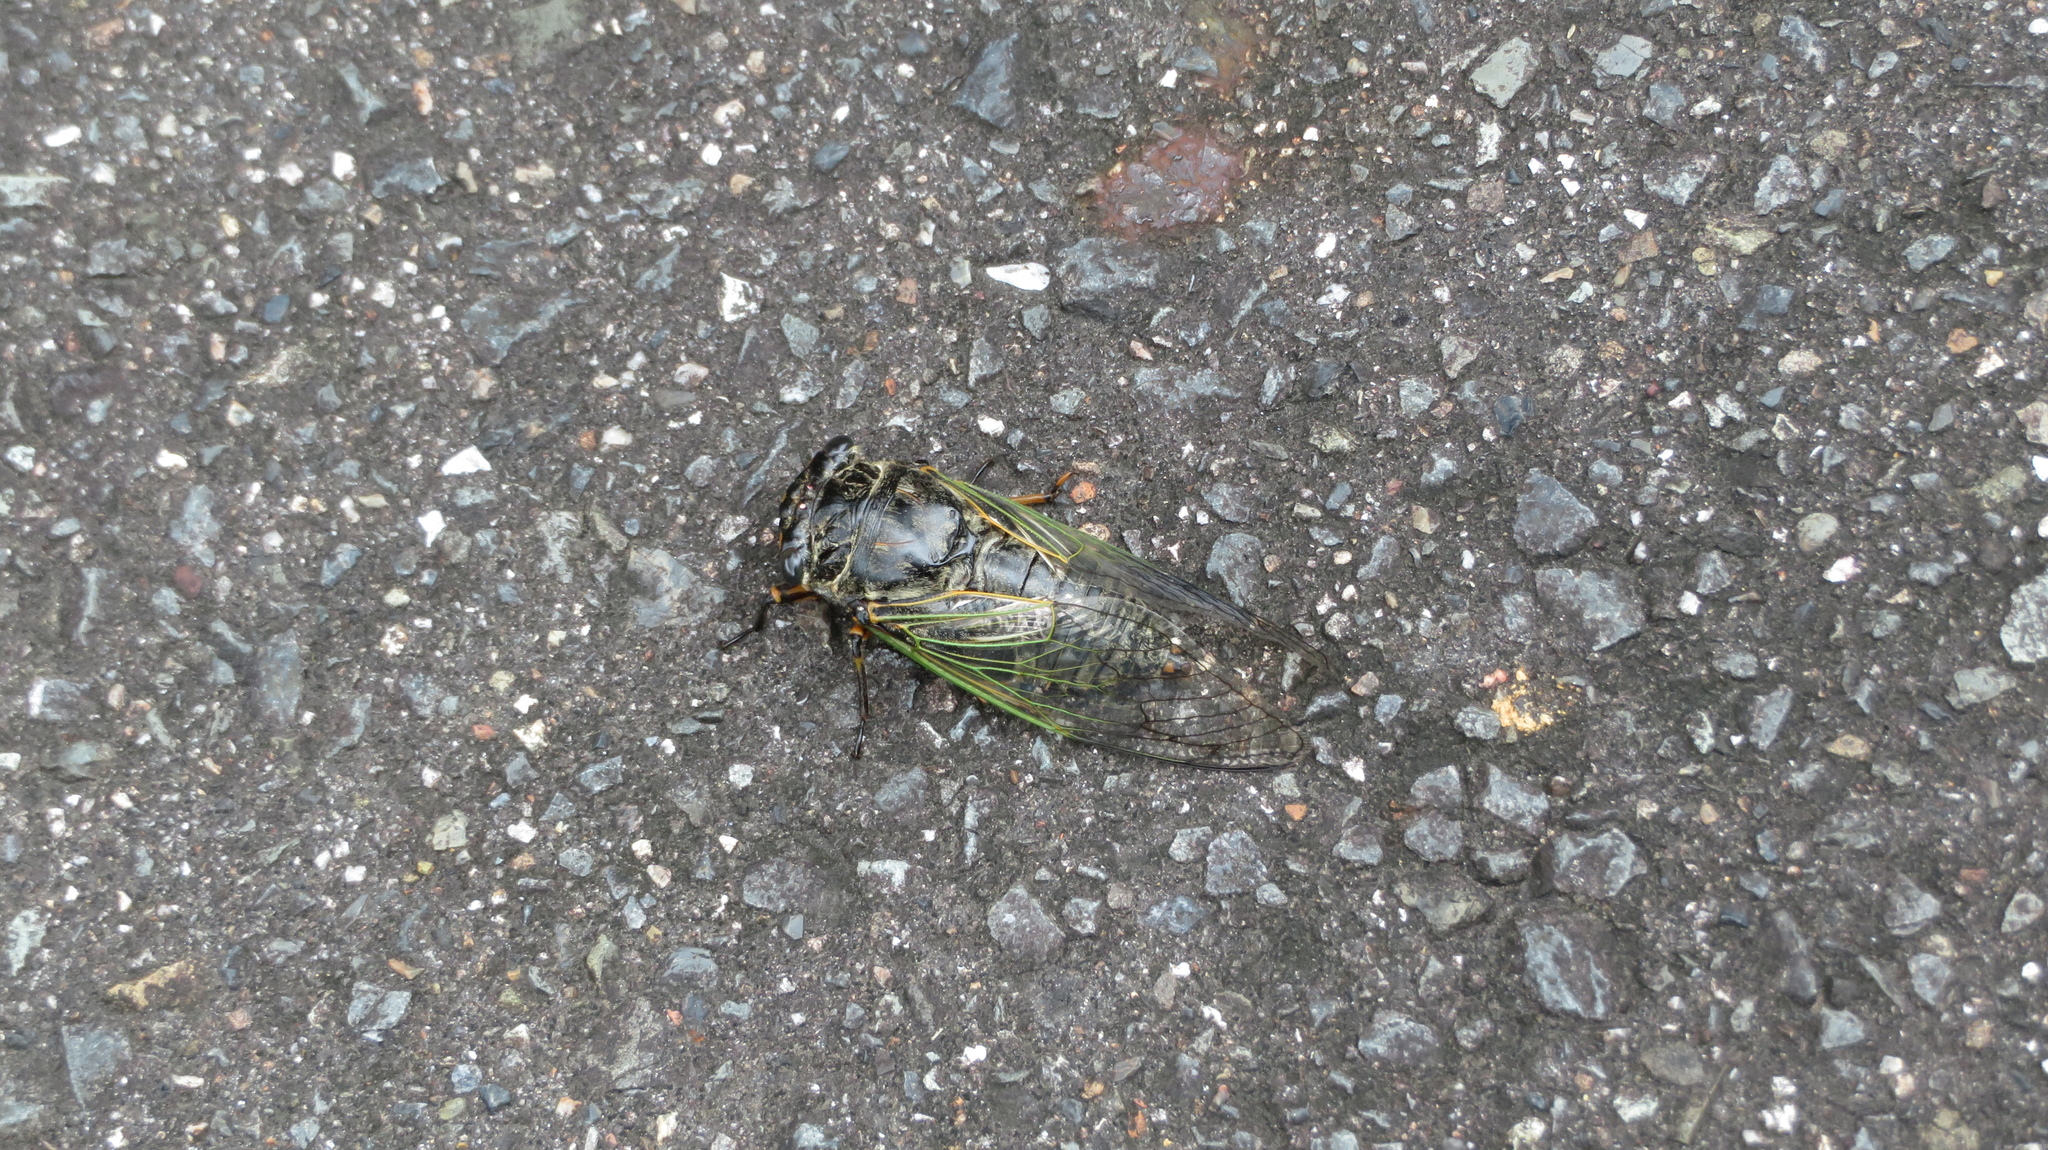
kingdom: Animalia
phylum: Arthropoda
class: Insecta
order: Hemiptera
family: Cicadidae
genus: Cryptotympana
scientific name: Cryptotympana facialis
